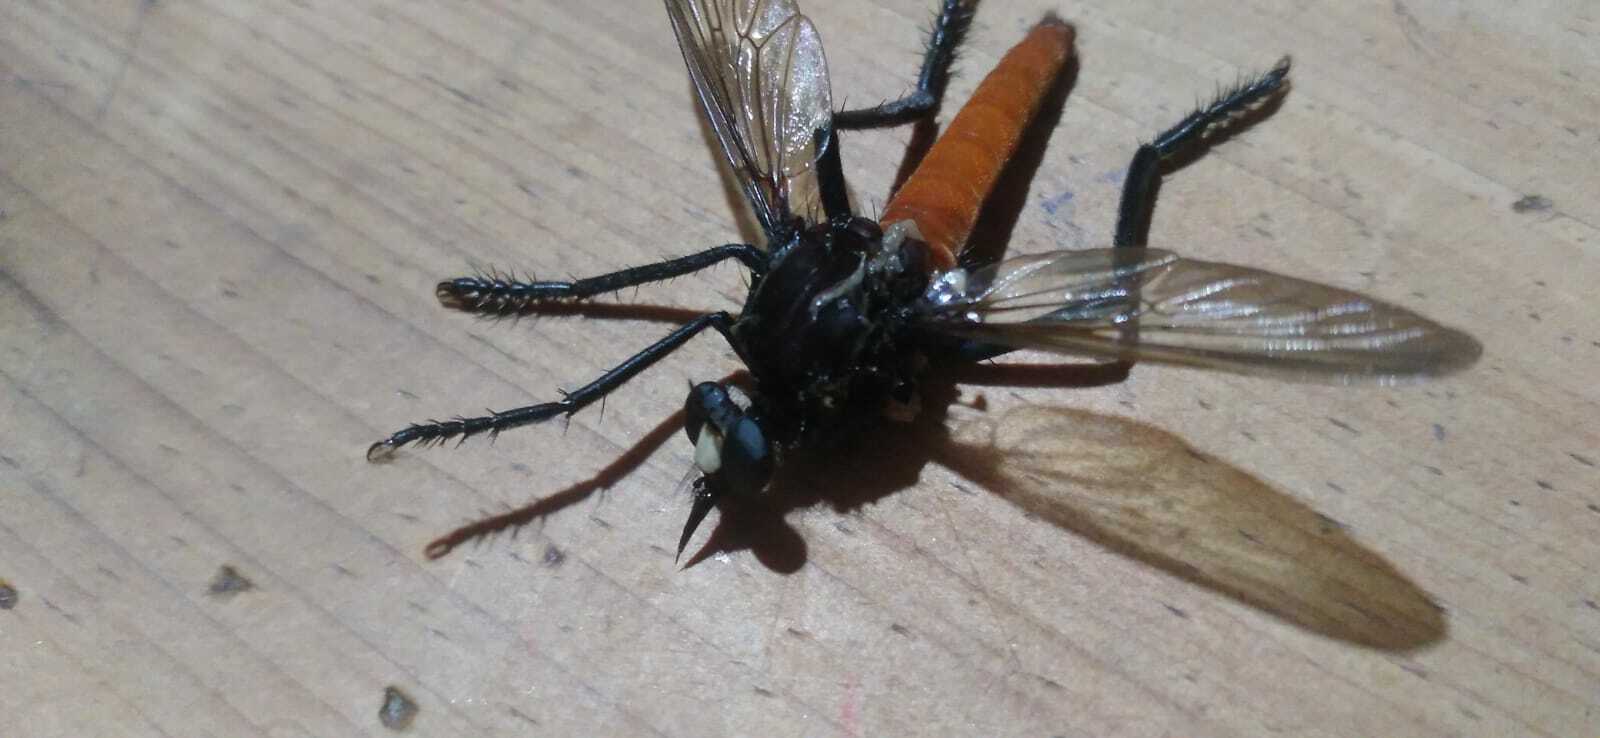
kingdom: Animalia
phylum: Arthropoda
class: Insecta
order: Diptera
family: Asilidae
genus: Archilestris
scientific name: Archilestris magnificus
